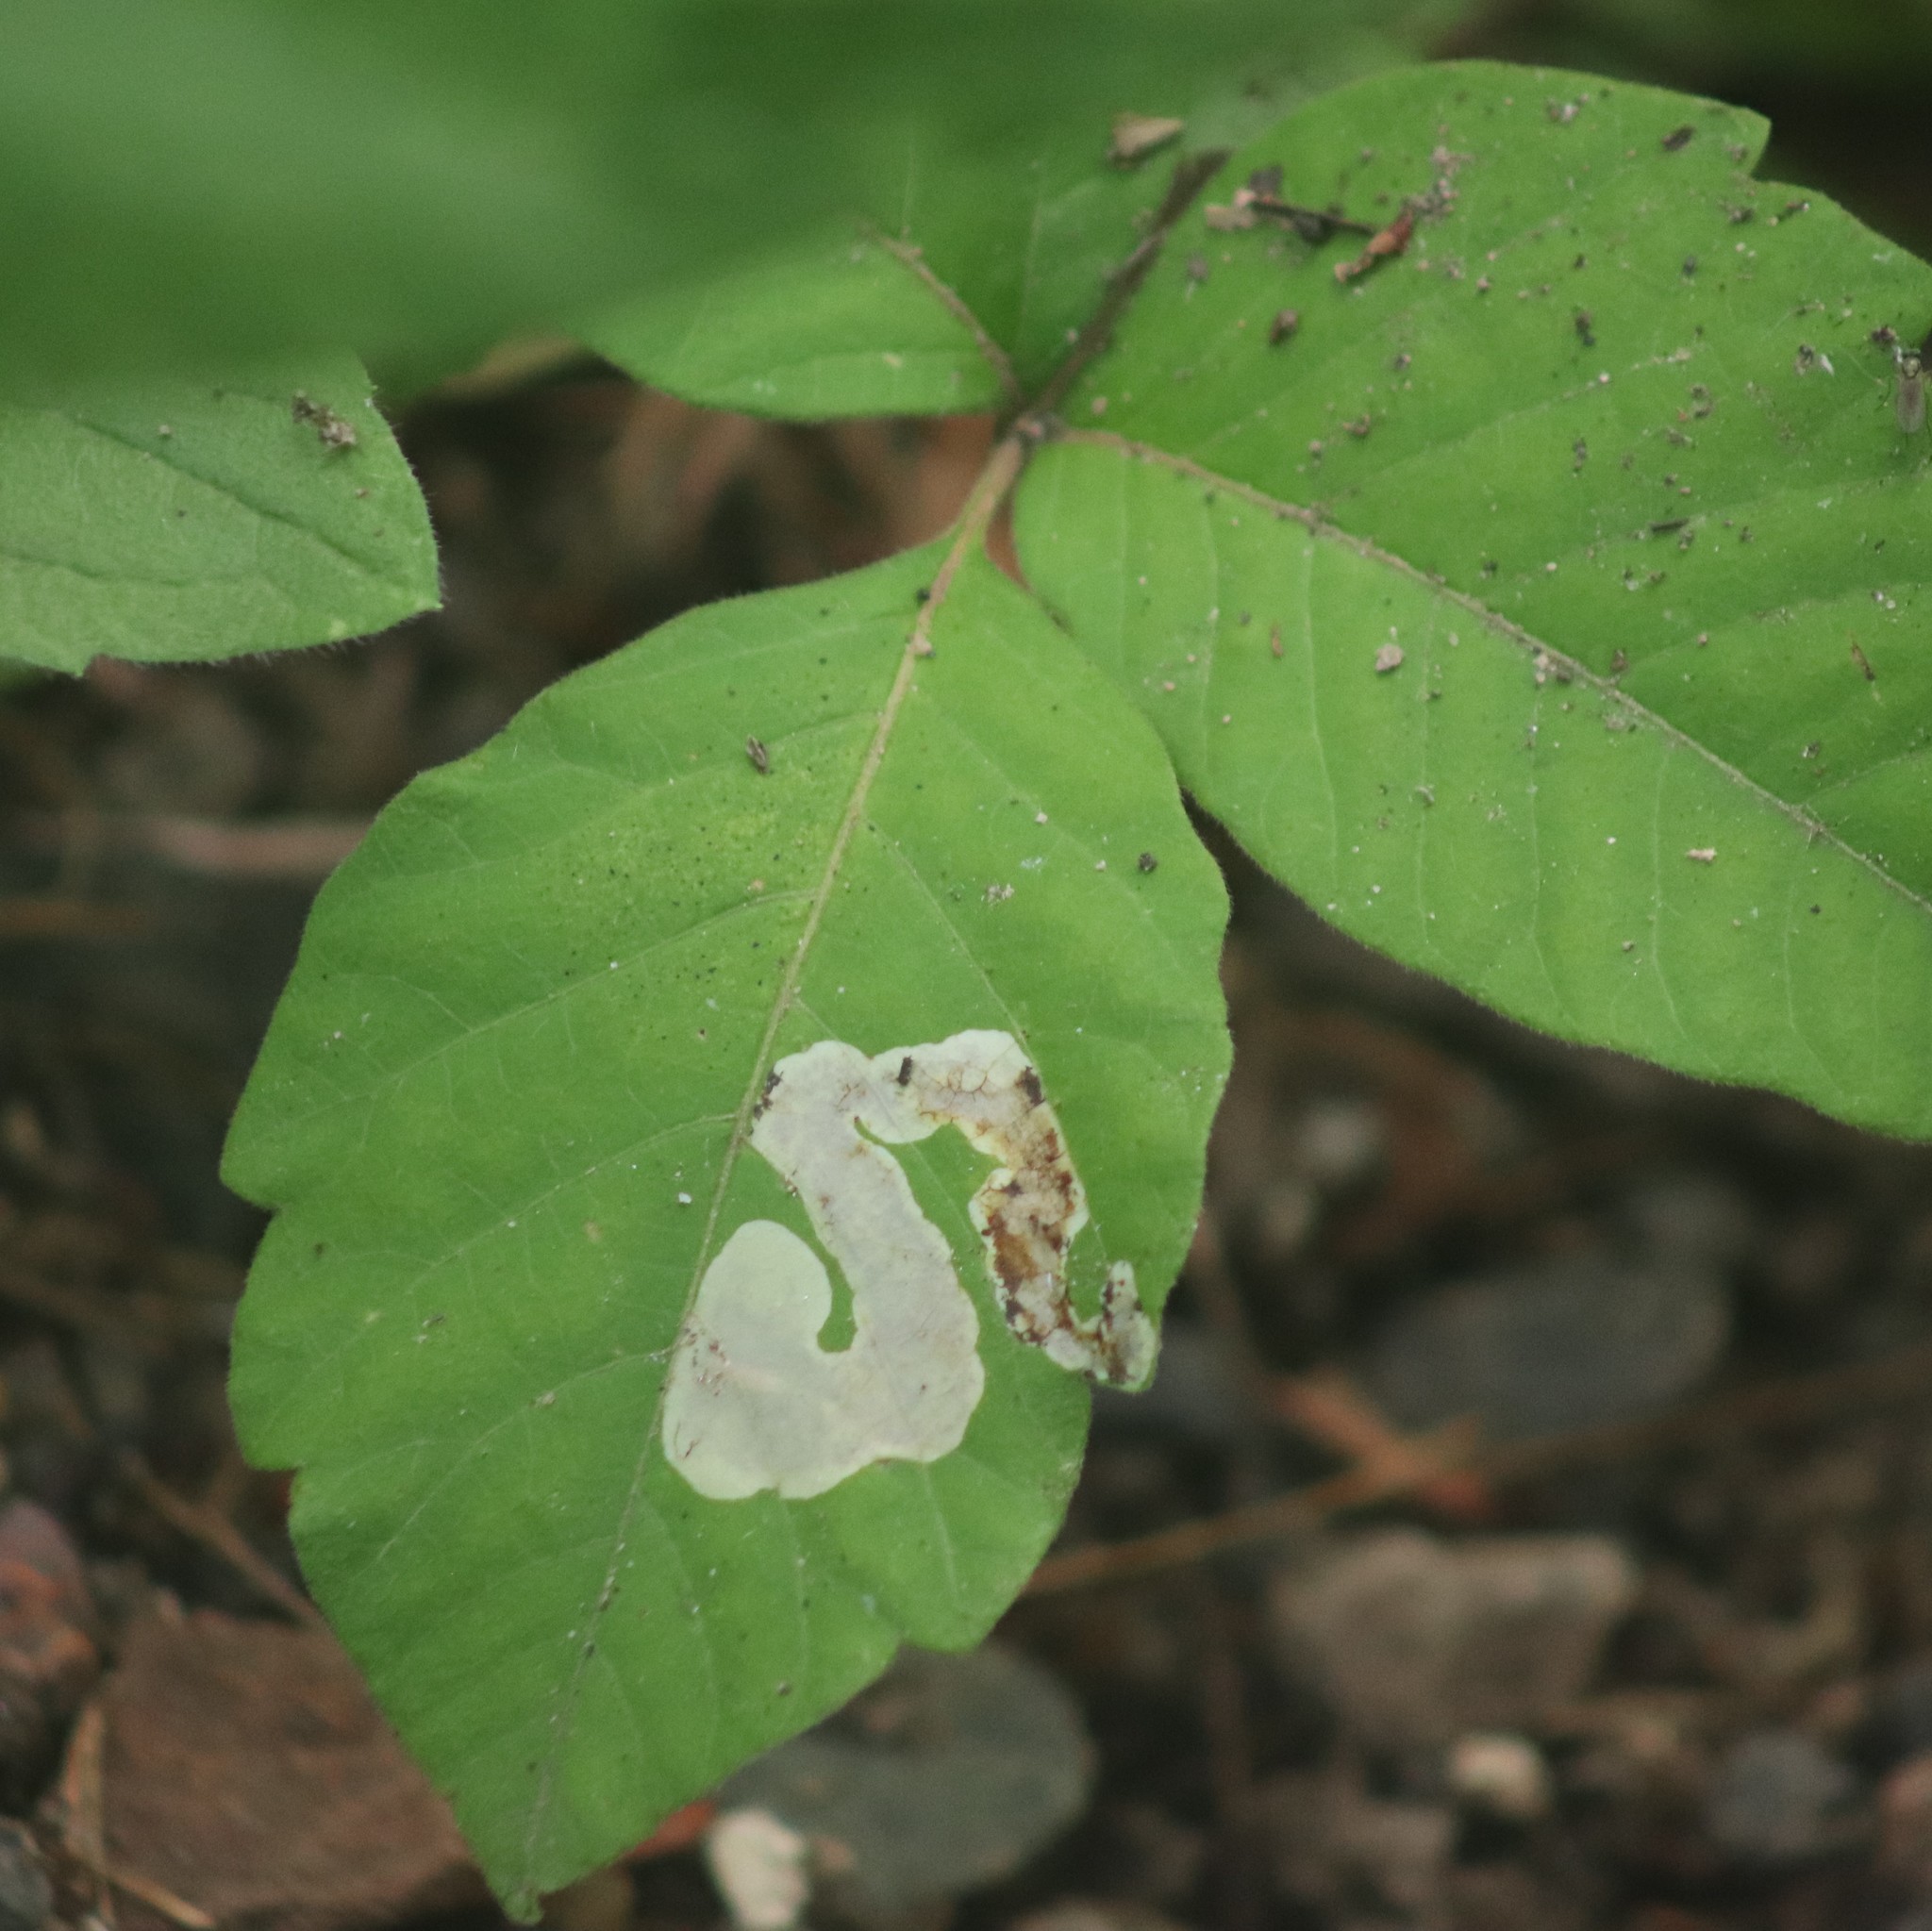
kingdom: Animalia
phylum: Arthropoda
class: Insecta
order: Lepidoptera
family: Gracillariidae
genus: Cameraria
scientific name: Cameraria guttifinitella
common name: Poison ivy leaf-miner moth
